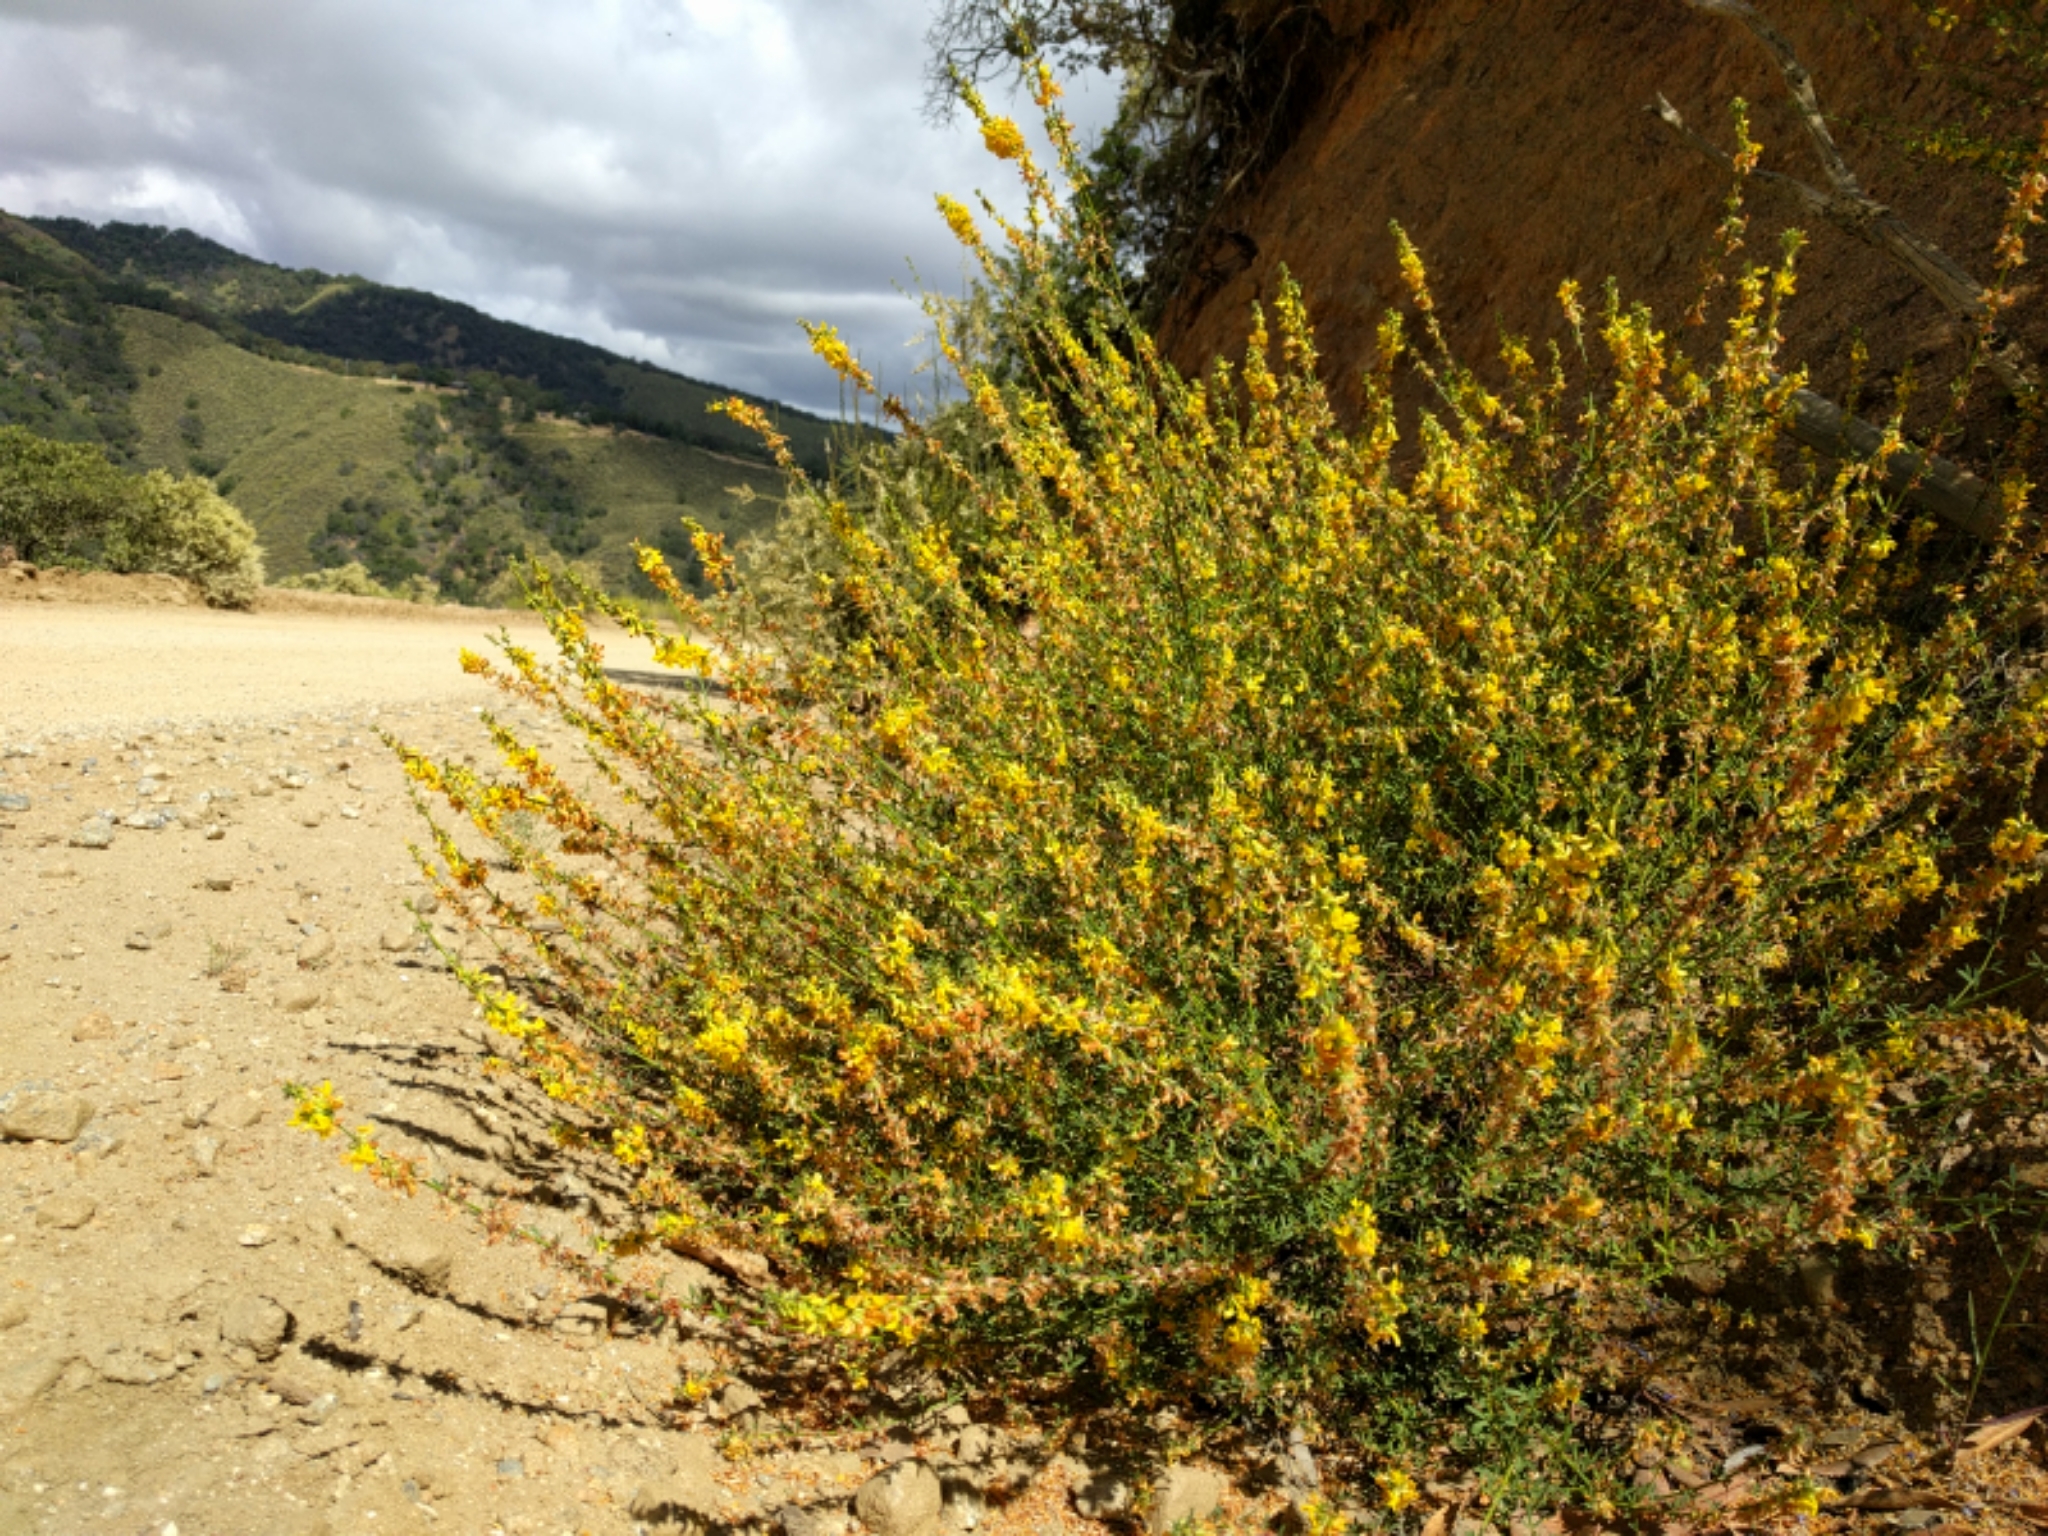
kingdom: Plantae
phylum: Tracheophyta
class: Magnoliopsida
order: Fabales
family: Fabaceae
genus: Acmispon
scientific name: Acmispon glaber
